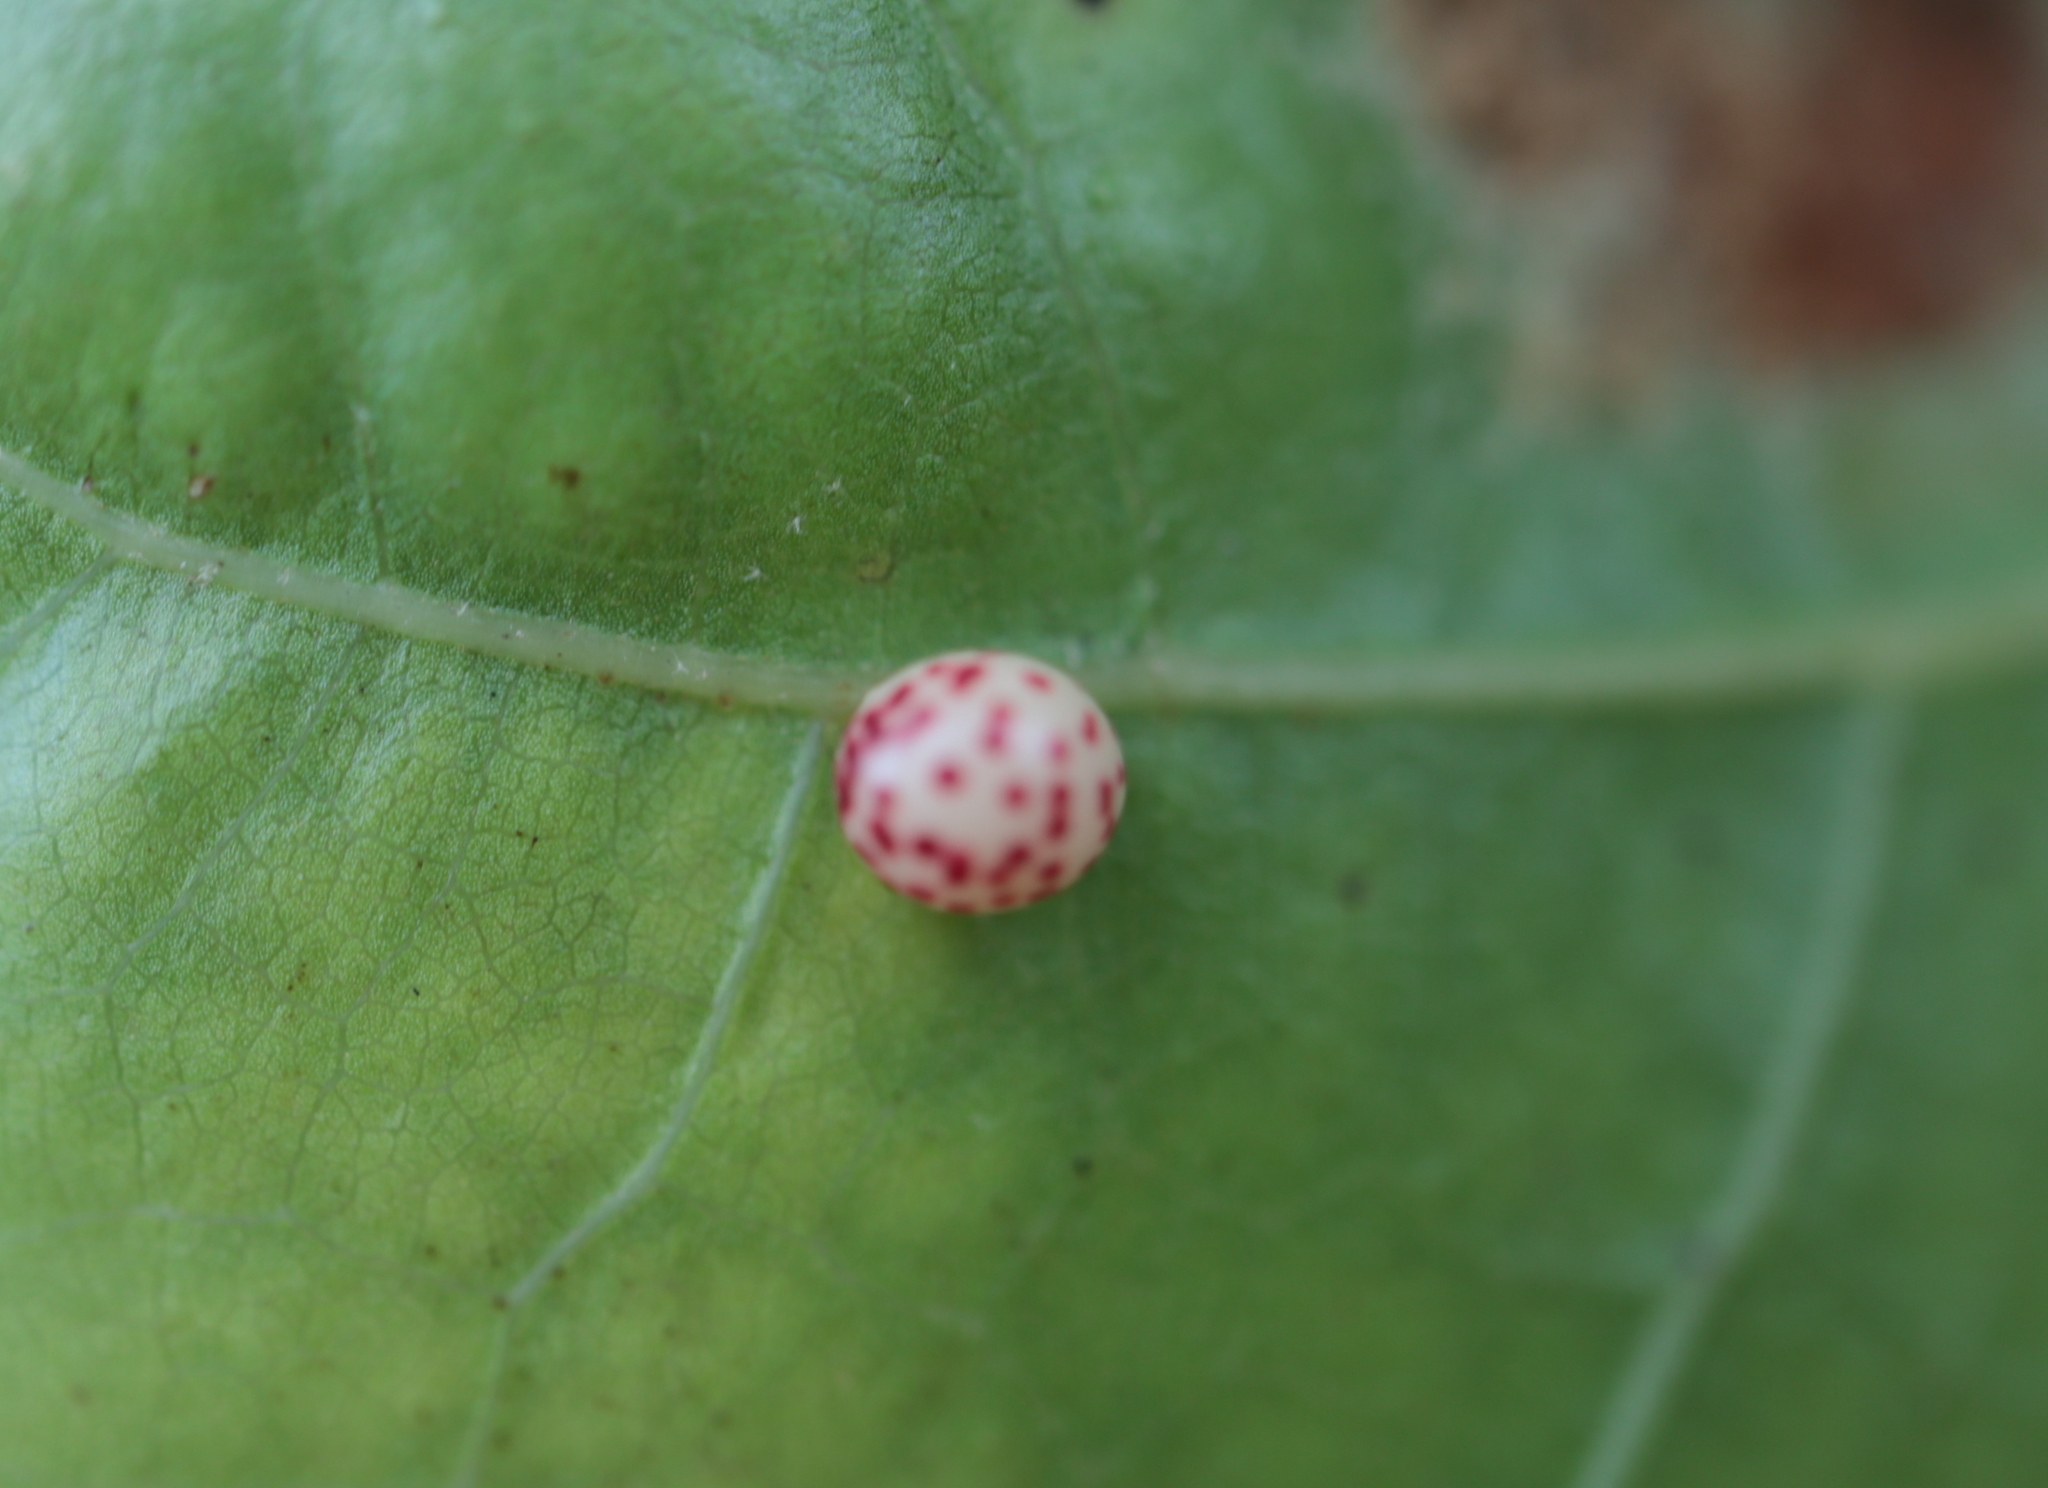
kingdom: Animalia
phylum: Arthropoda
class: Insecta
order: Hymenoptera
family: Cynipidae
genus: Zopheroteras
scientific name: Zopheroteras
